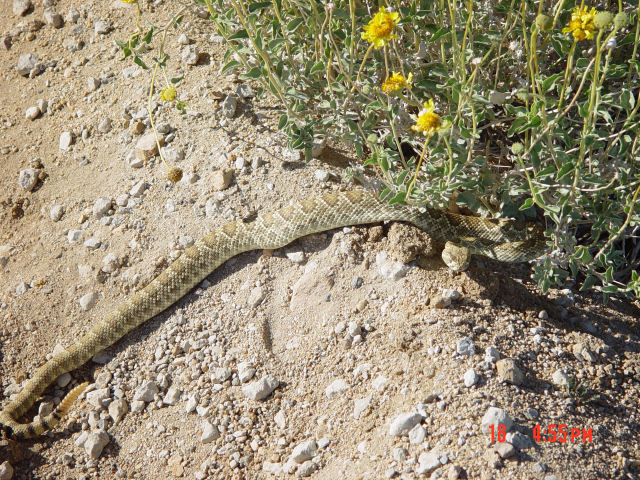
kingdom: Animalia
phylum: Chordata
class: Squamata
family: Viperidae
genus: Crotalus
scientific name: Crotalus scutulatus
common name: Scutulatus
